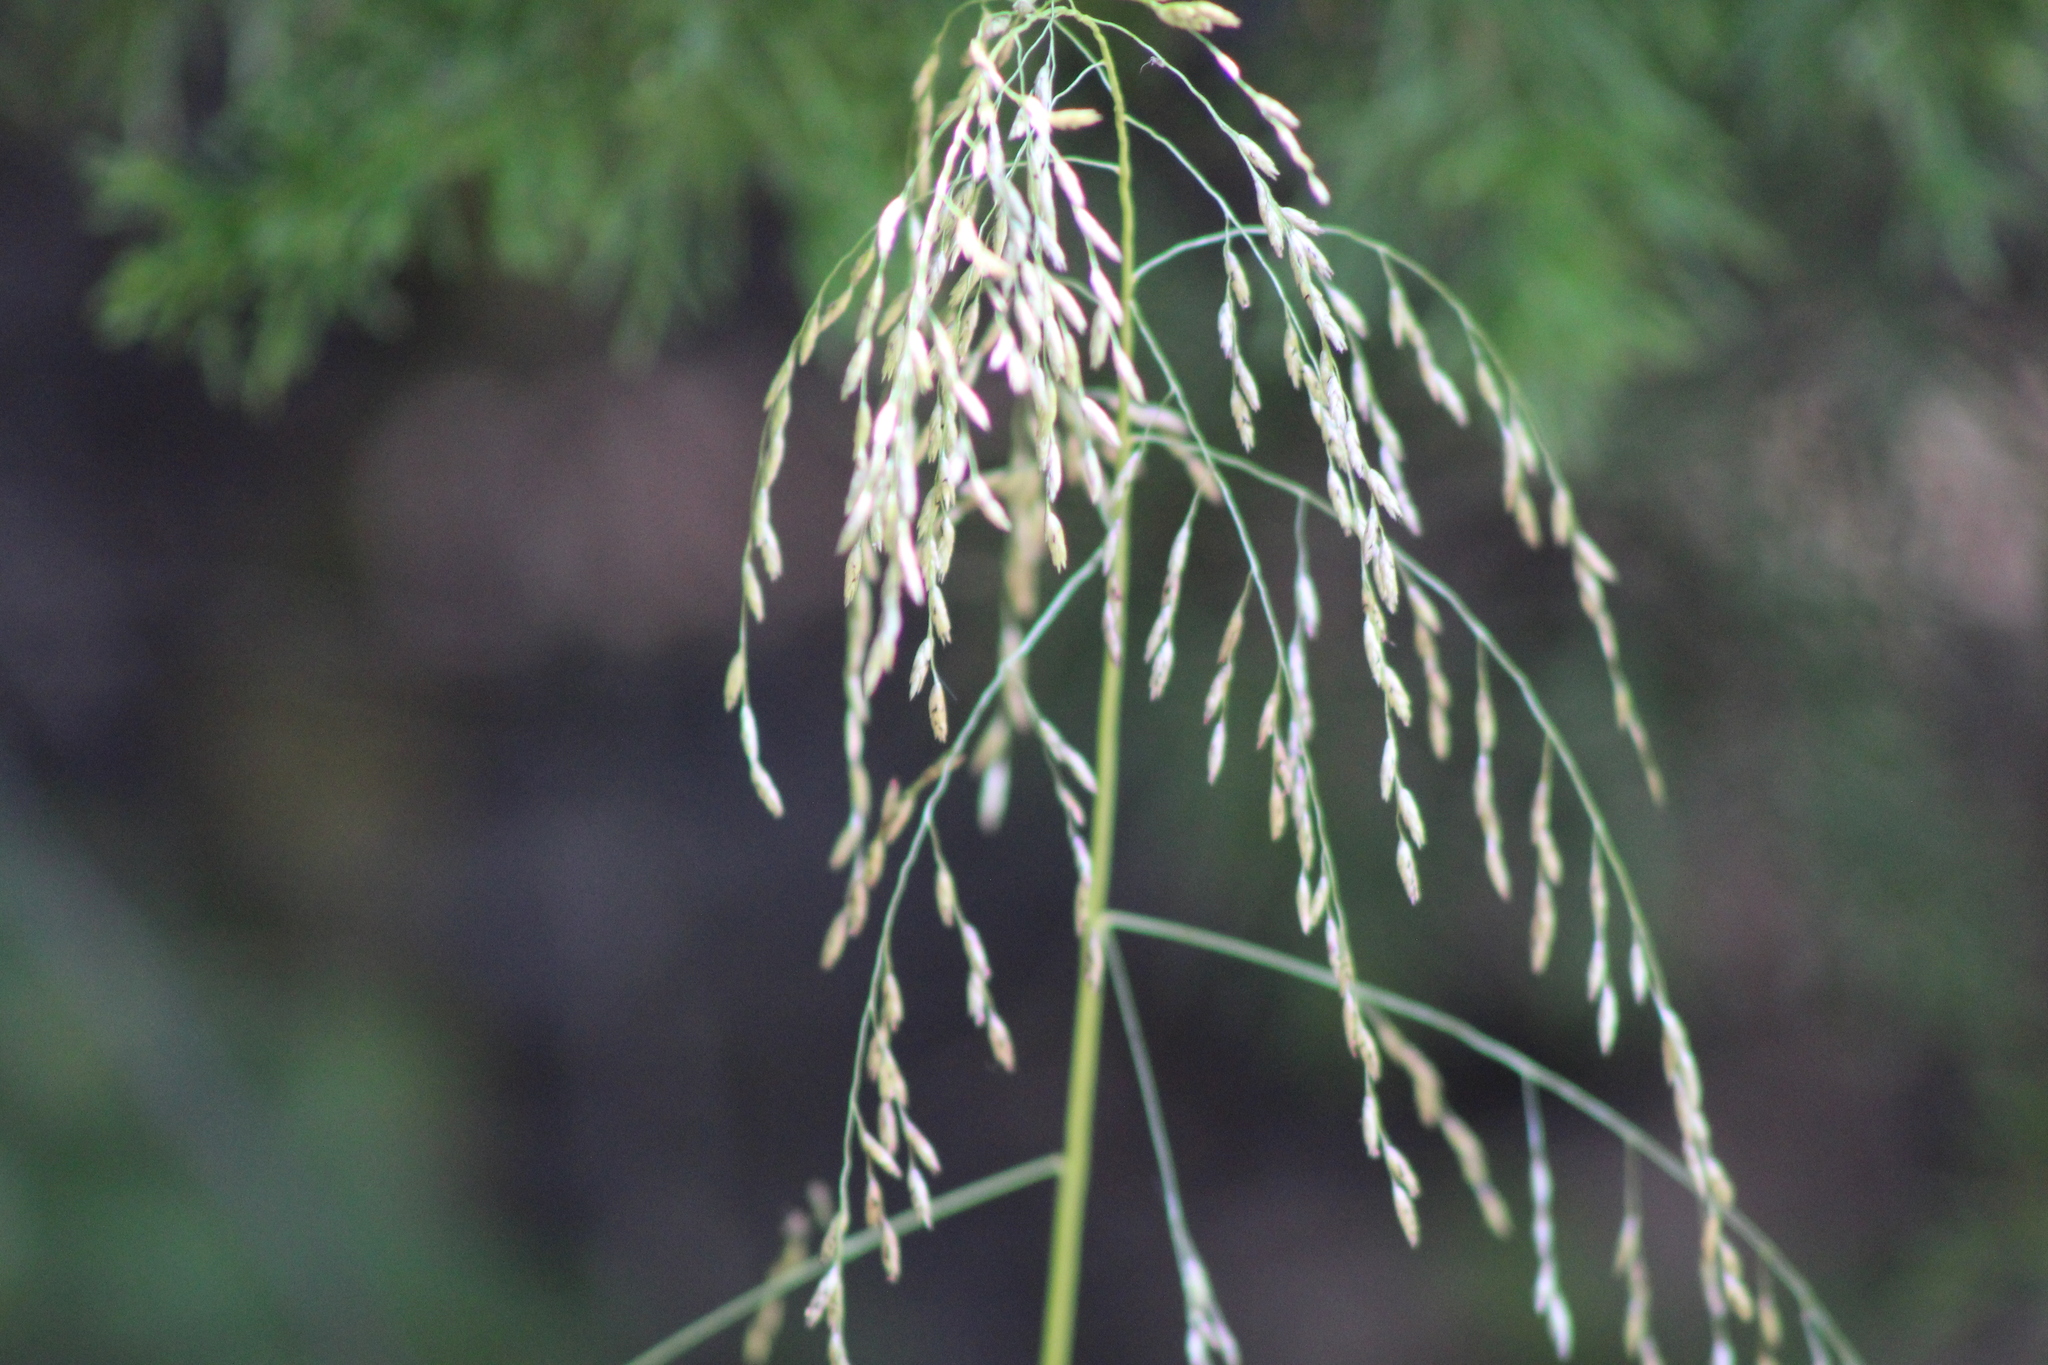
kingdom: Plantae
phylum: Tracheophyta
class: Liliopsida
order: Poales
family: Poaceae
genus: Tridens
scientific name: Tridens flavus
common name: Purpletop
